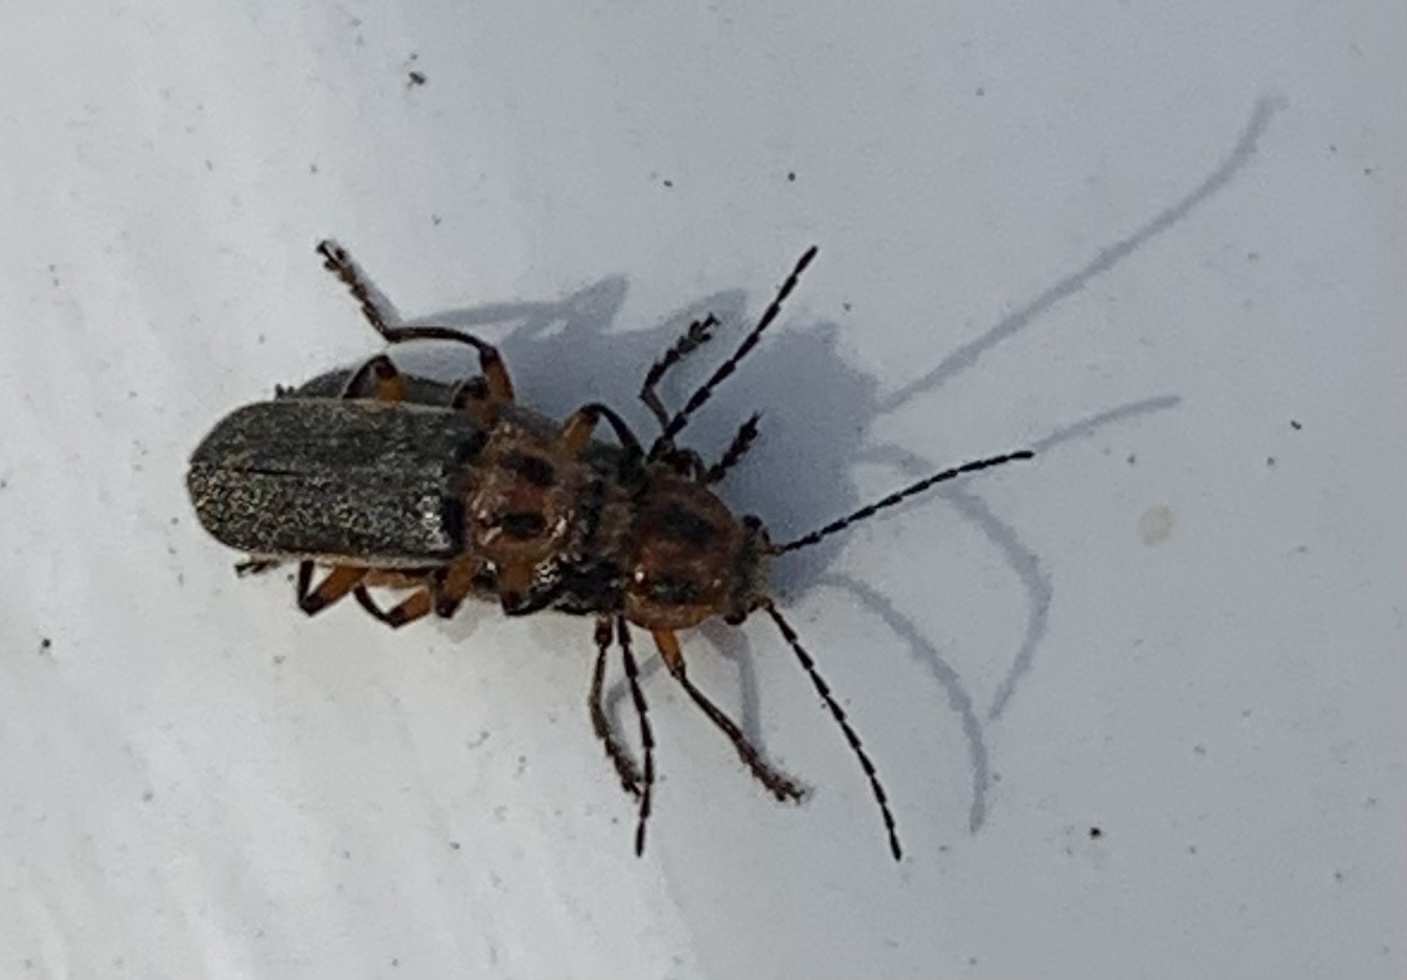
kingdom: Animalia
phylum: Arthropoda
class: Insecta
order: Coleoptera
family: Cantharidae
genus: Atalantycha
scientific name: Atalantycha bilineata
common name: Two-lined leatherwing
